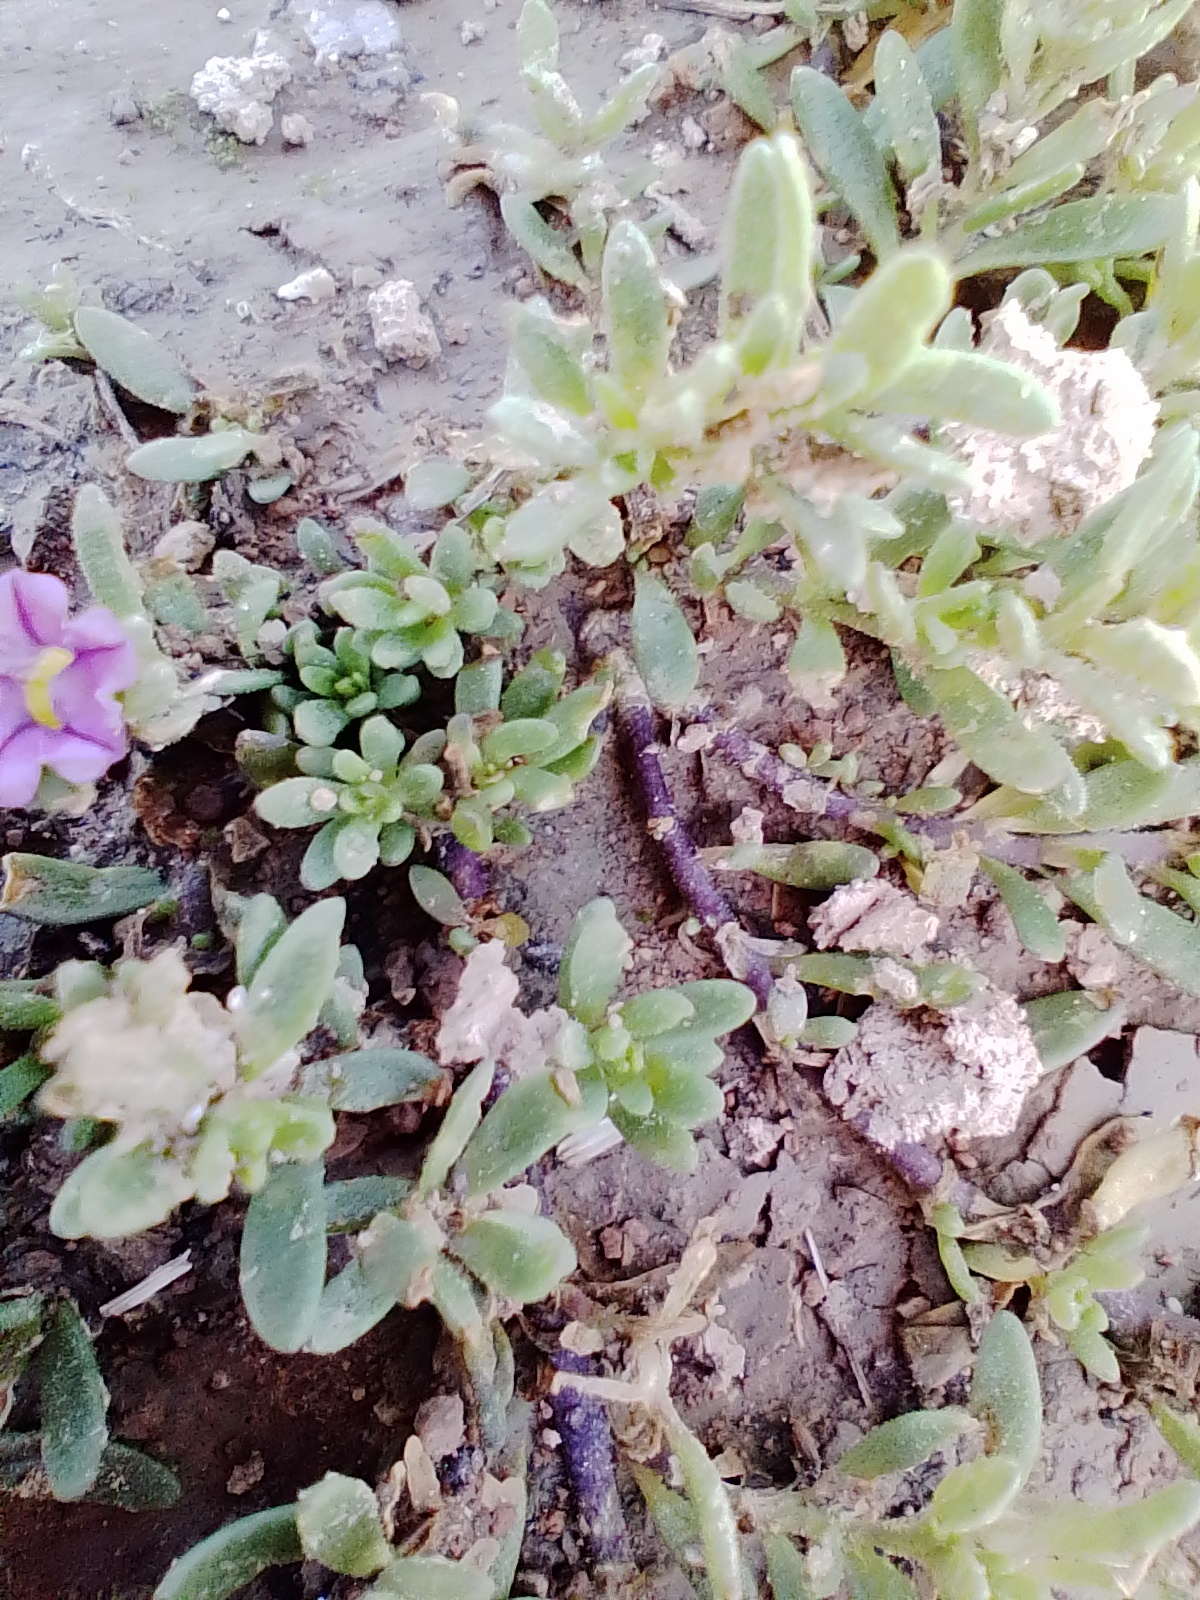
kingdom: Plantae
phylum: Tracheophyta
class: Magnoliopsida
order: Solanales
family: Solanaceae
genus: Calibrachoa
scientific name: Calibrachoa parviflora
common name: Seaside petunia
